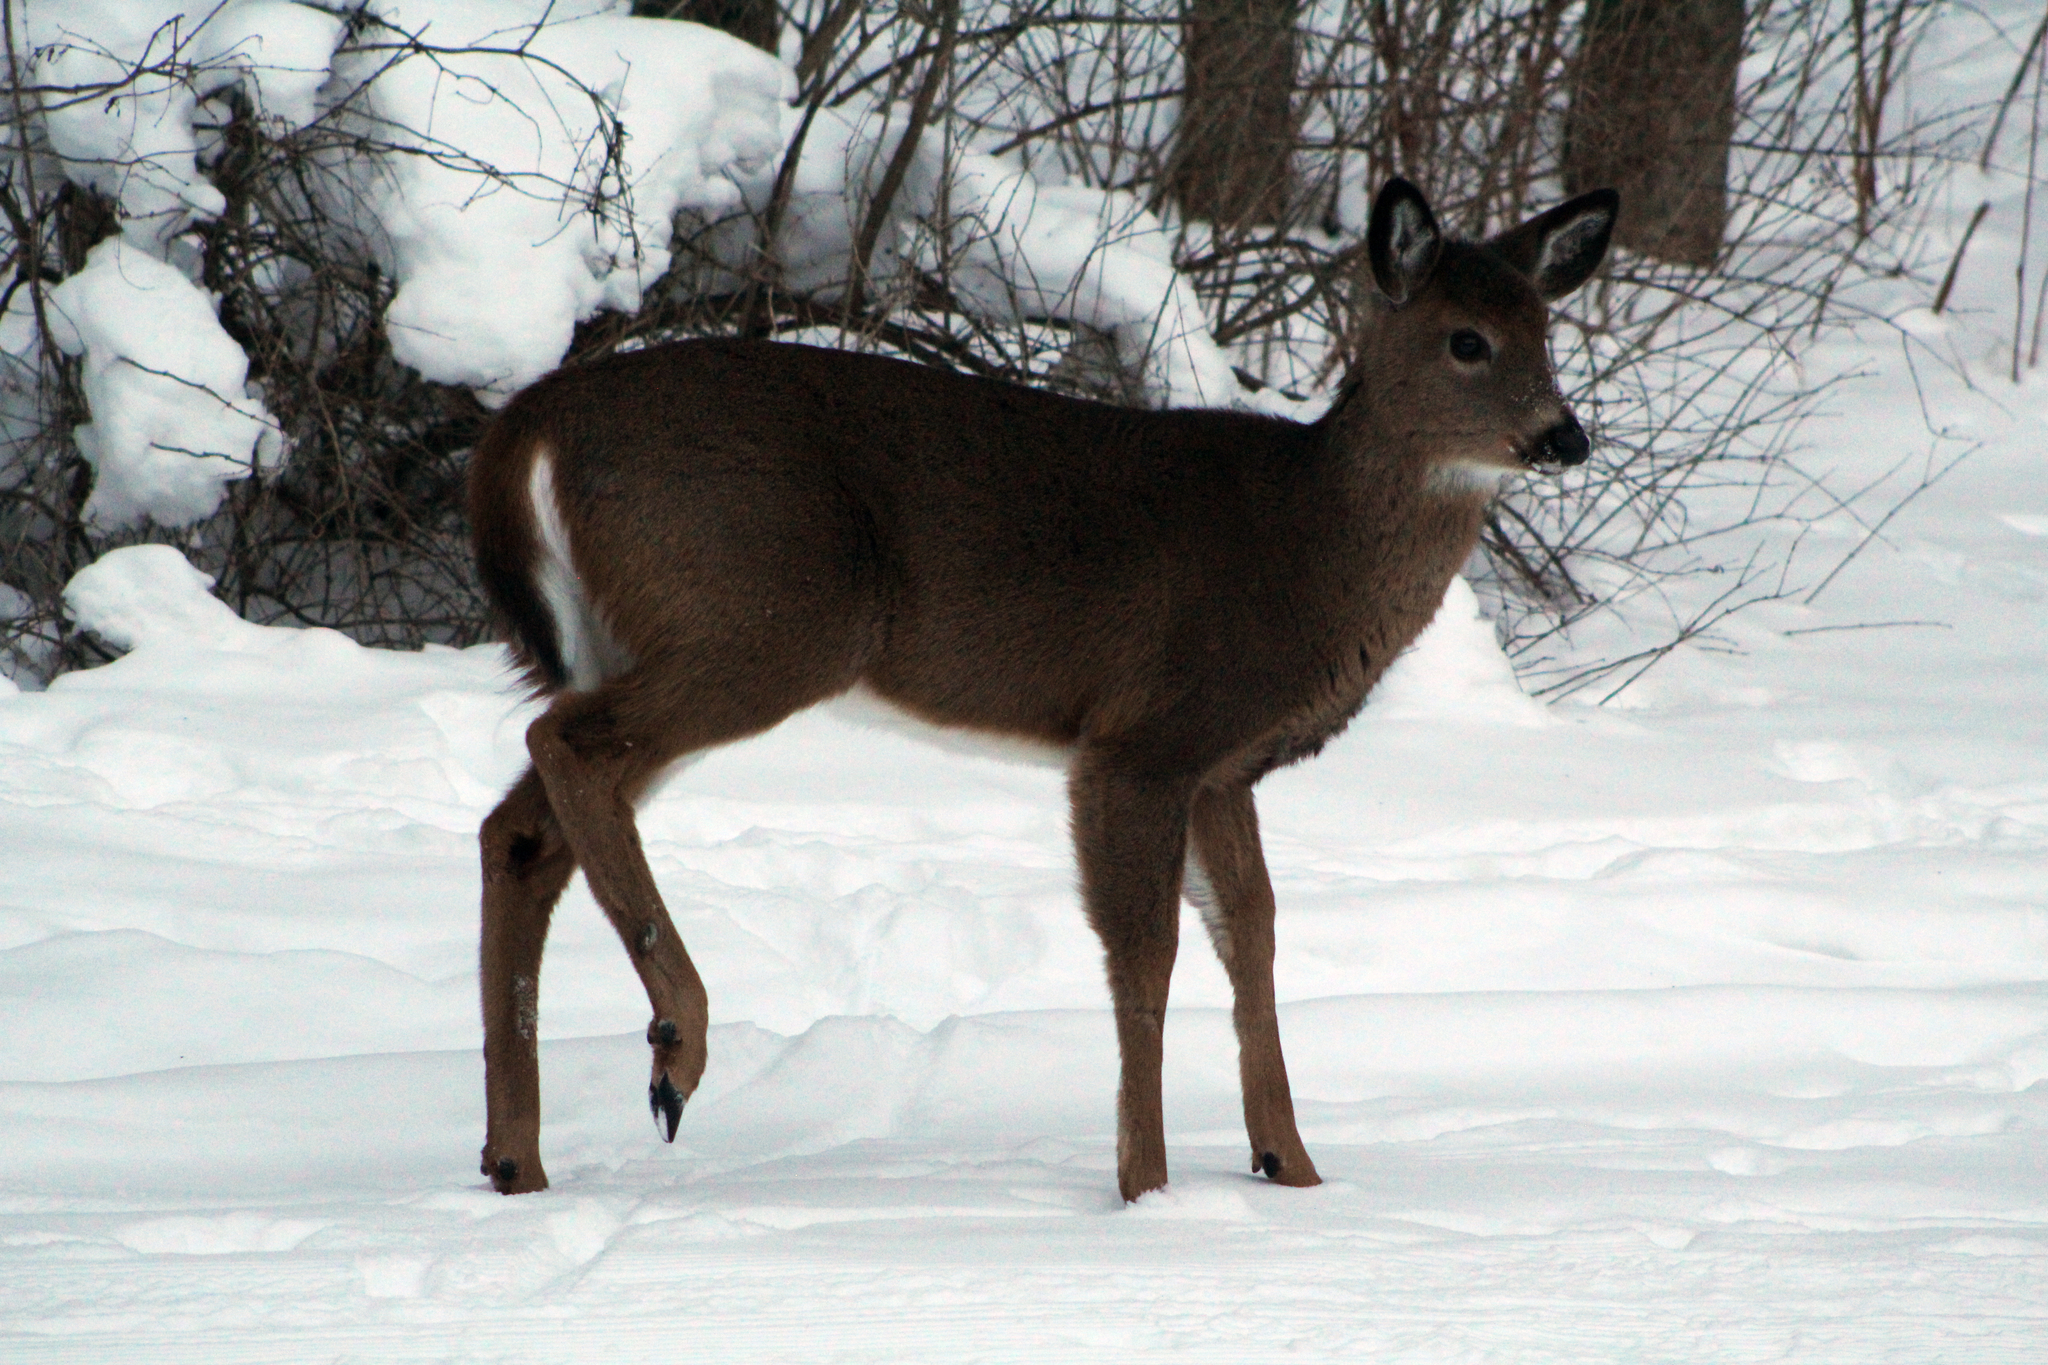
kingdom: Animalia
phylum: Chordata
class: Mammalia
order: Artiodactyla
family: Cervidae
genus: Odocoileus
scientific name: Odocoileus virginianus
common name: White-tailed deer
